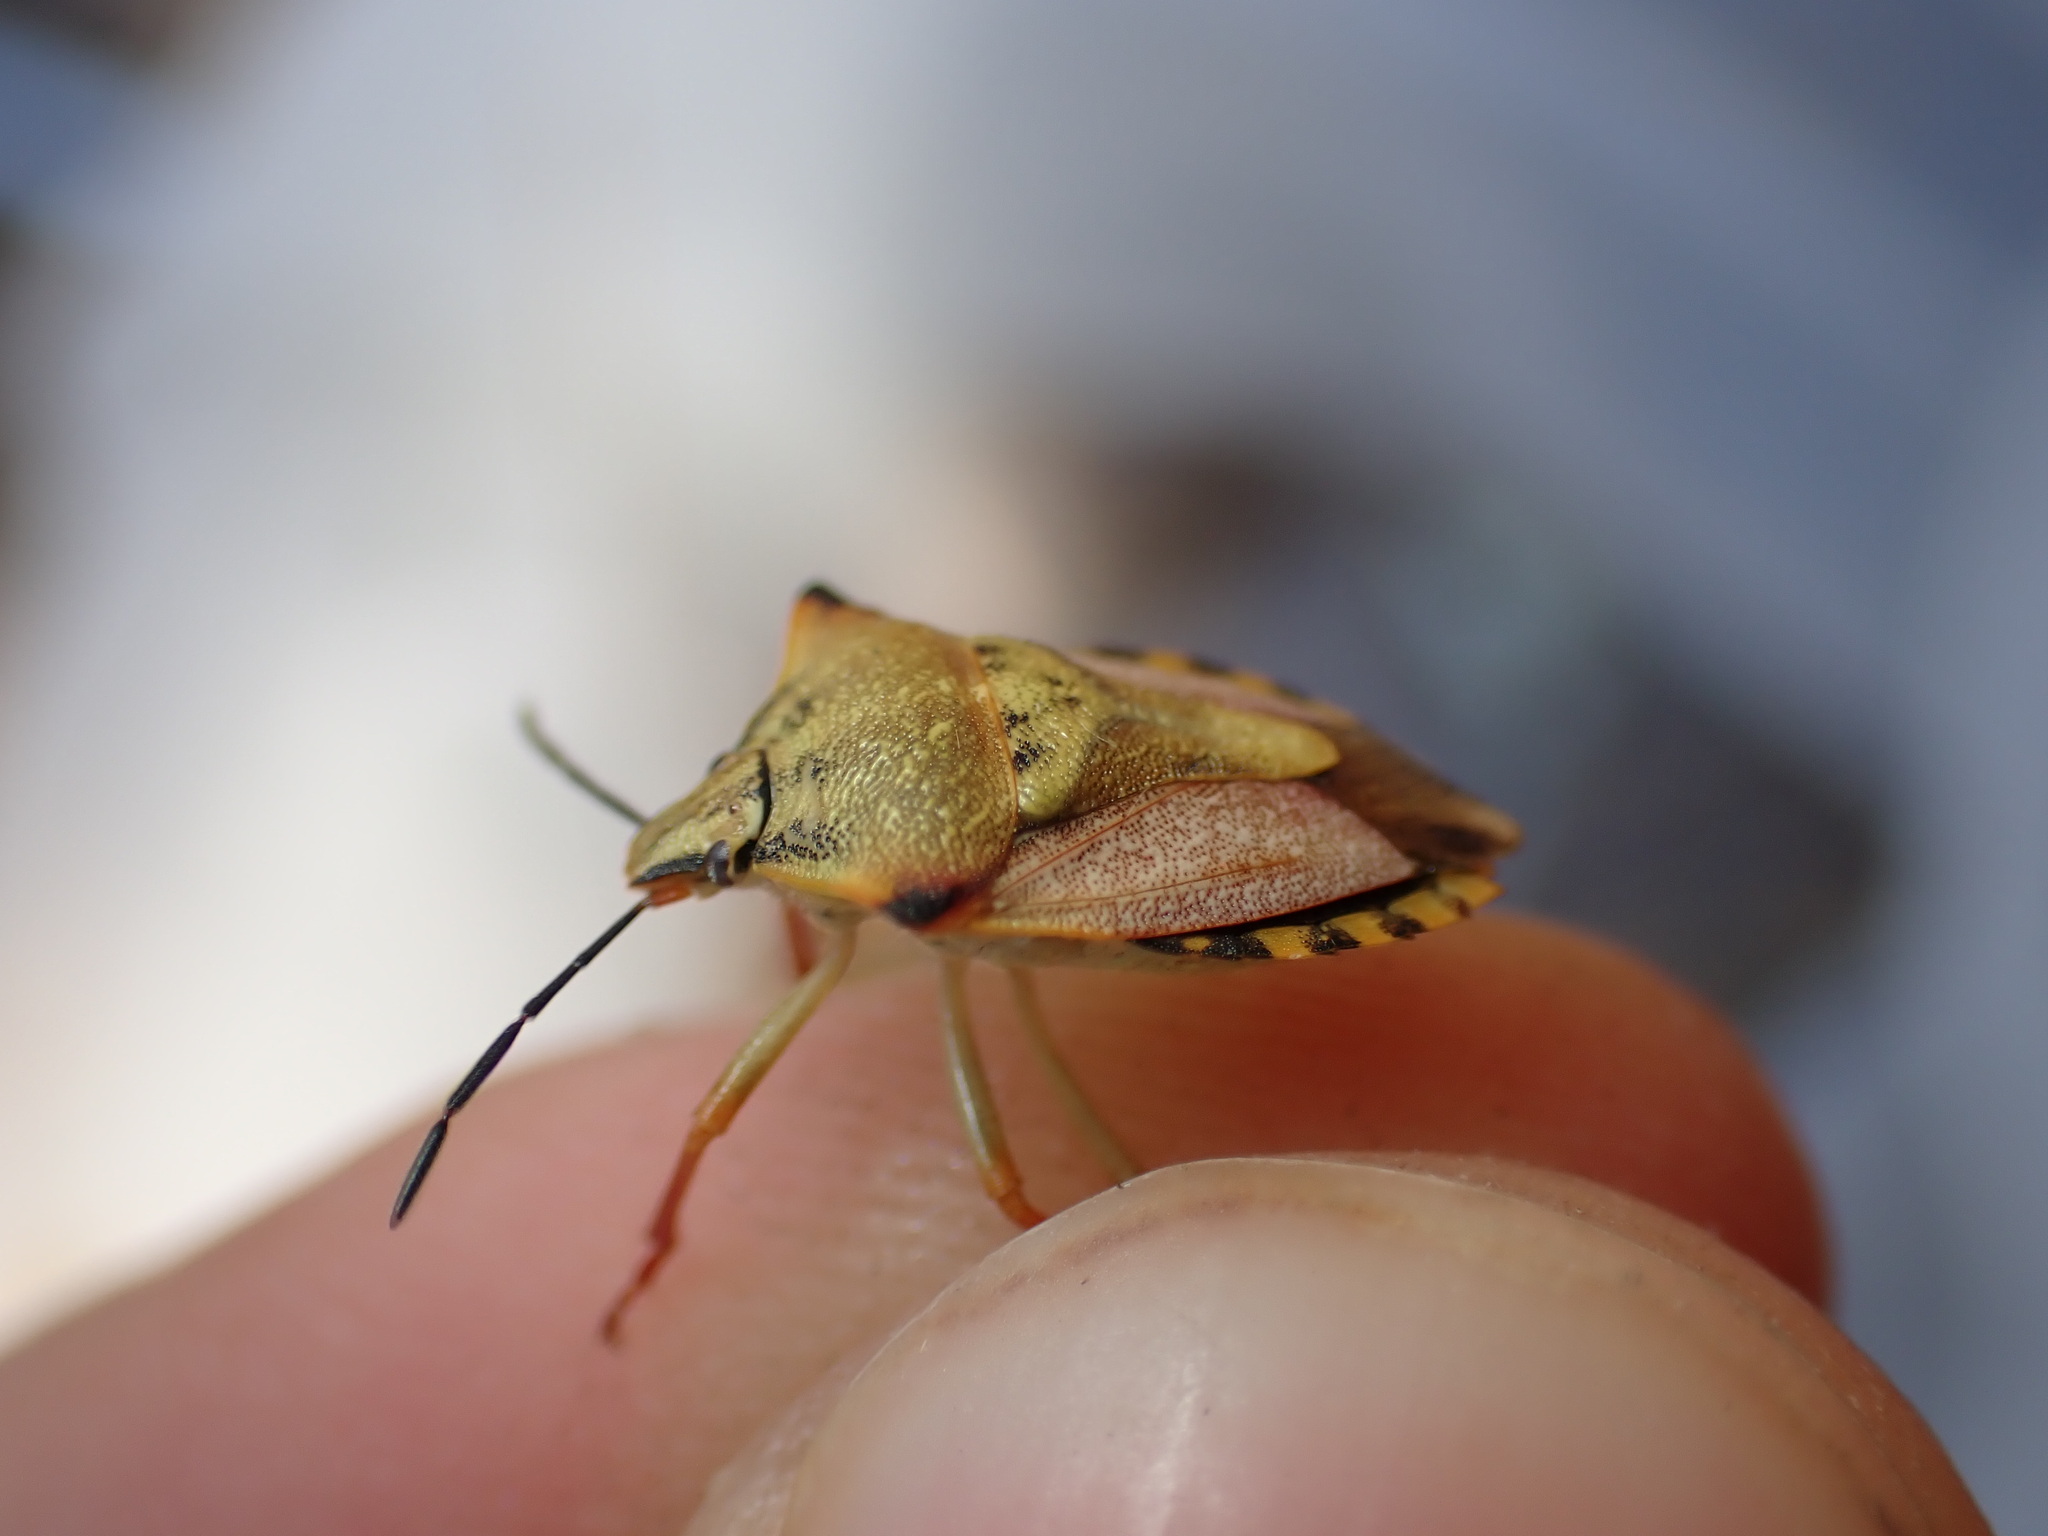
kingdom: Animalia
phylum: Arthropoda
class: Insecta
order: Hemiptera
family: Pentatomidae
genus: Carpocoris
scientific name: Carpocoris mediterraneus
